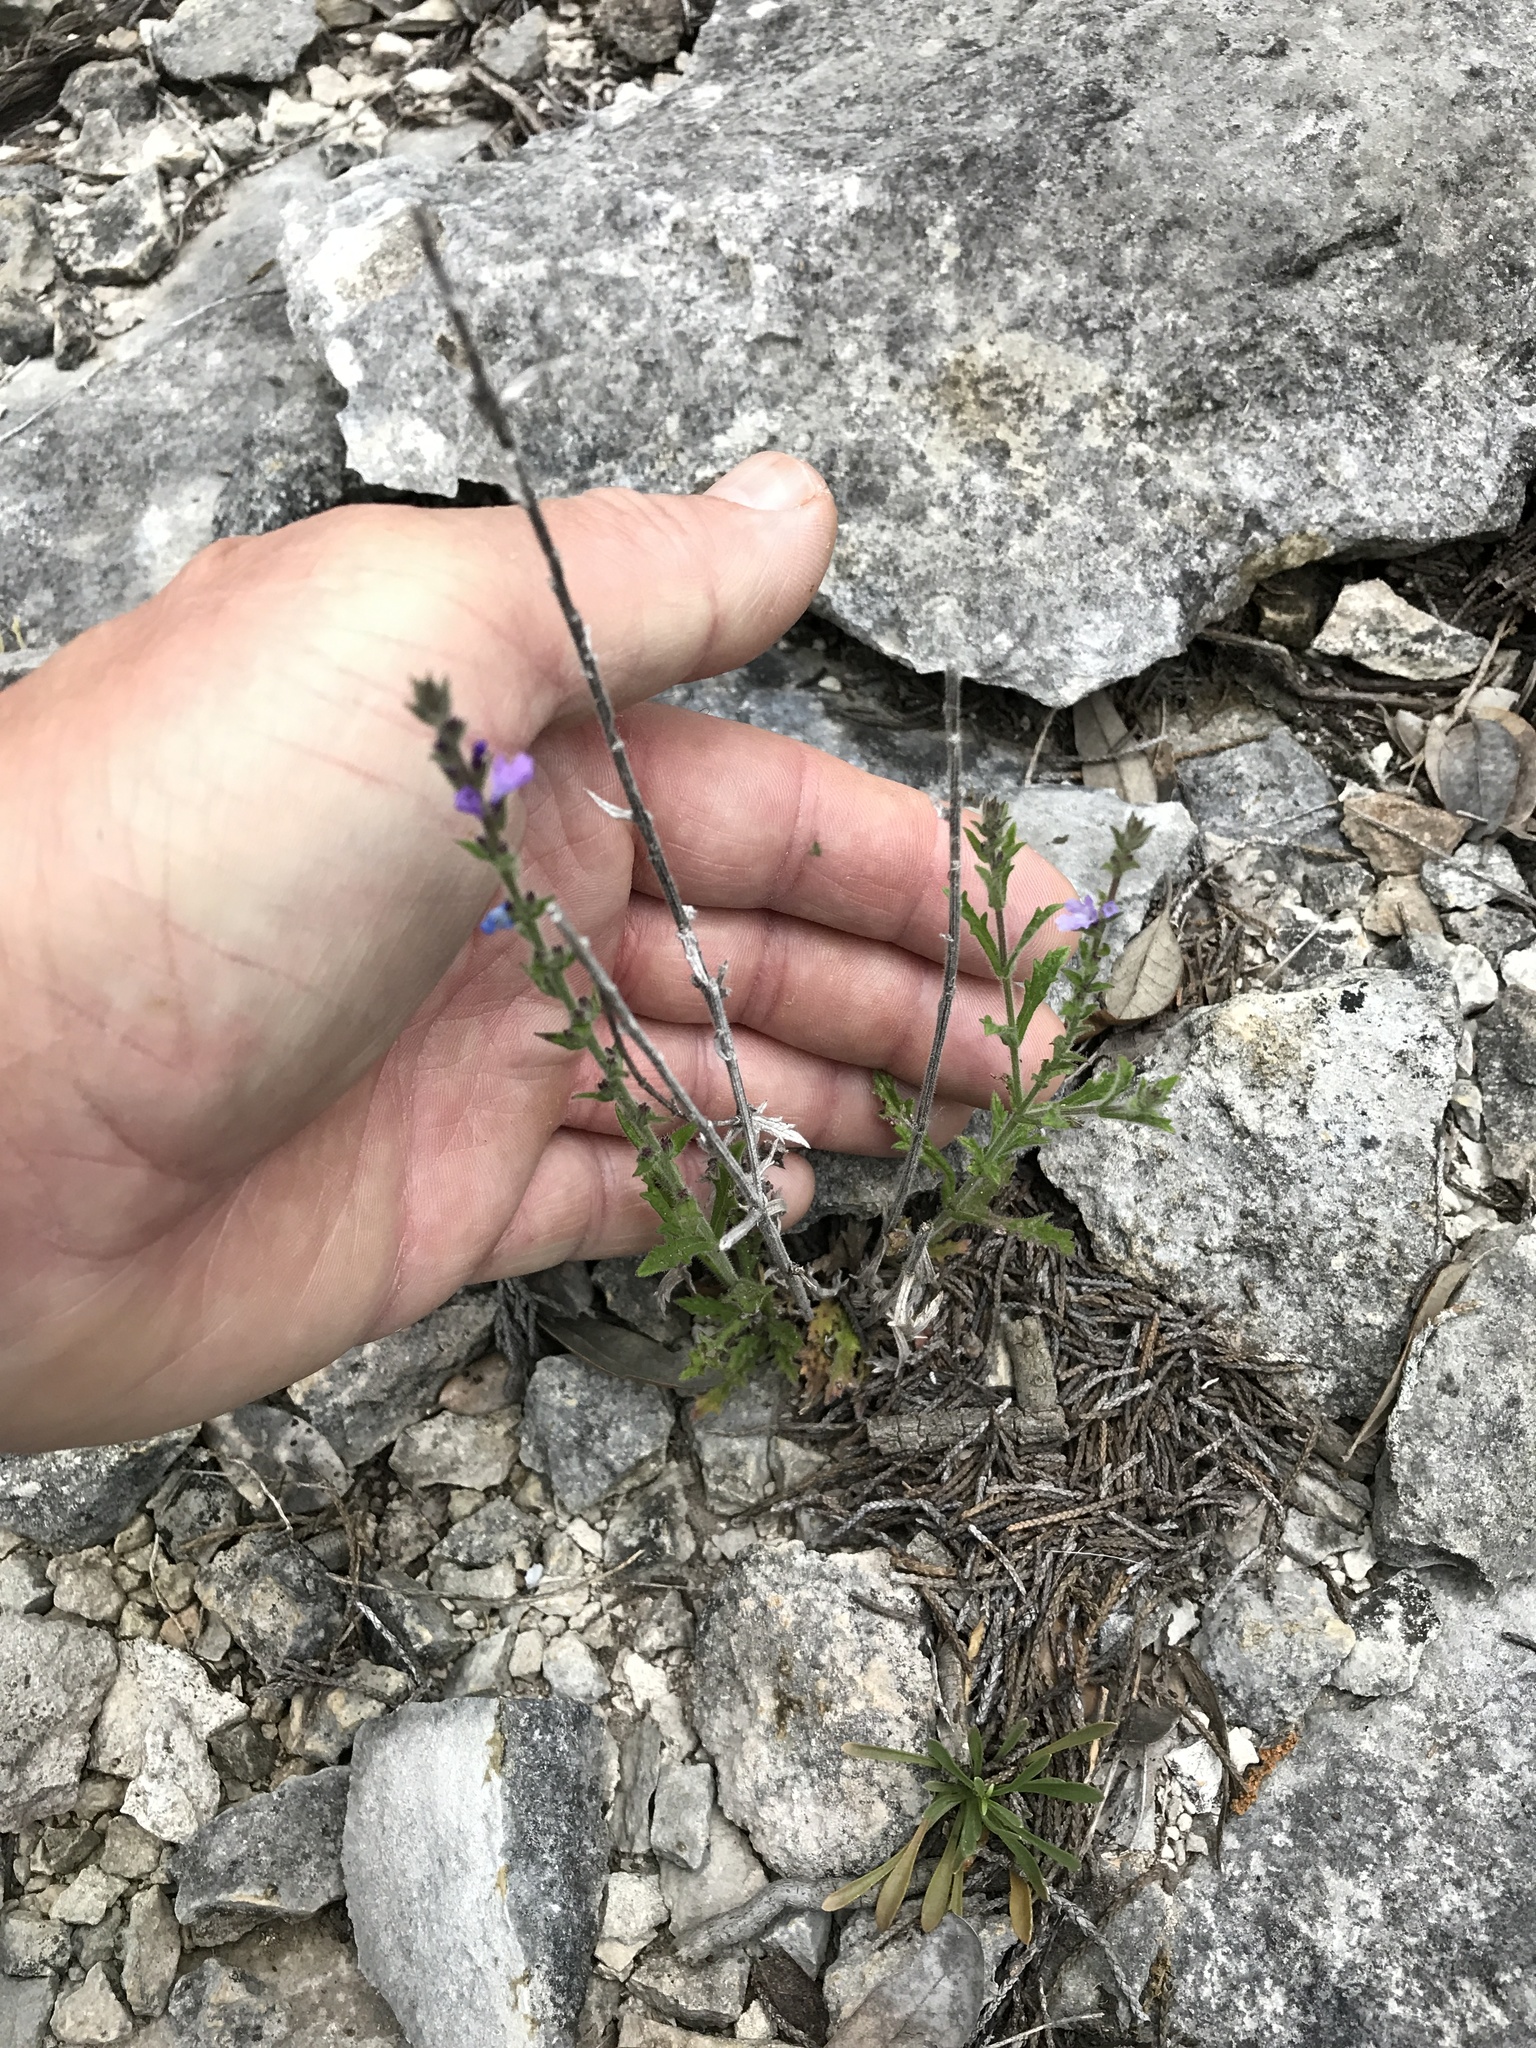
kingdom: Plantae
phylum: Tracheophyta
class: Magnoliopsida
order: Lamiales
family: Verbenaceae
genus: Verbena
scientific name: Verbena canescens
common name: Gray vervain
